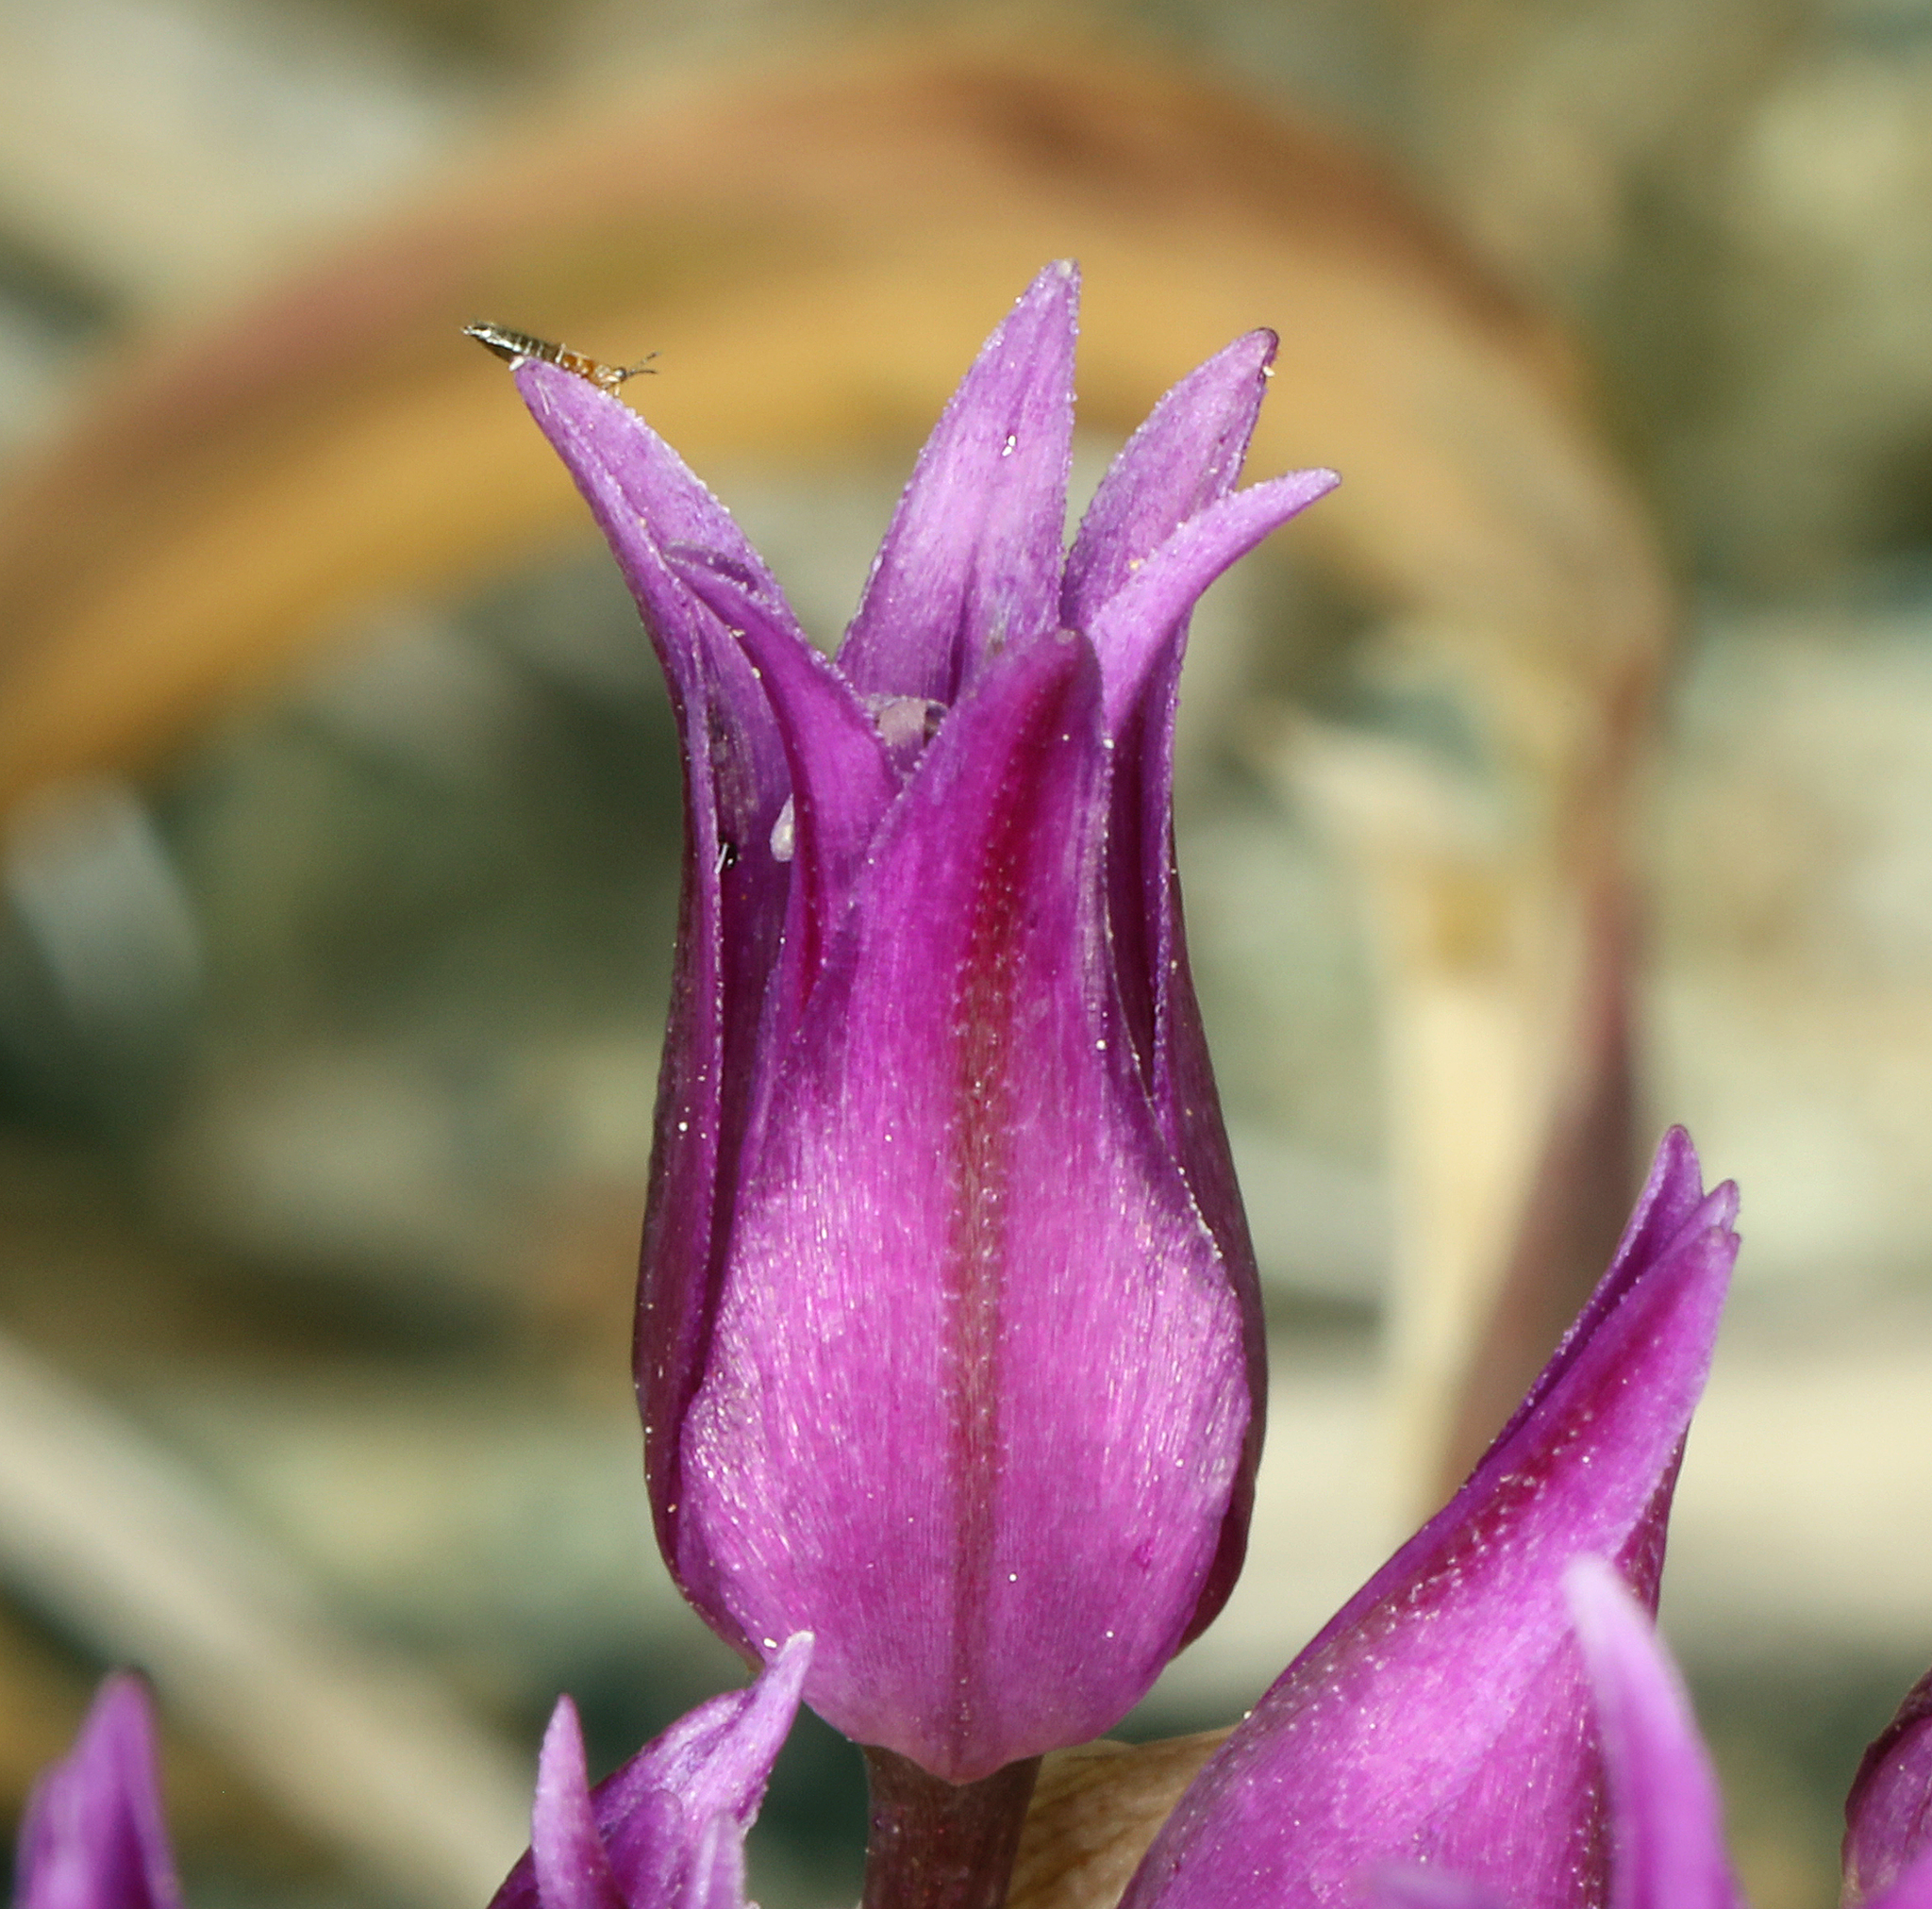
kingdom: Plantae
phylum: Tracheophyta
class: Liliopsida
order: Asparagales
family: Amaryllidaceae
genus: Allium
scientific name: Allium falcifolium
